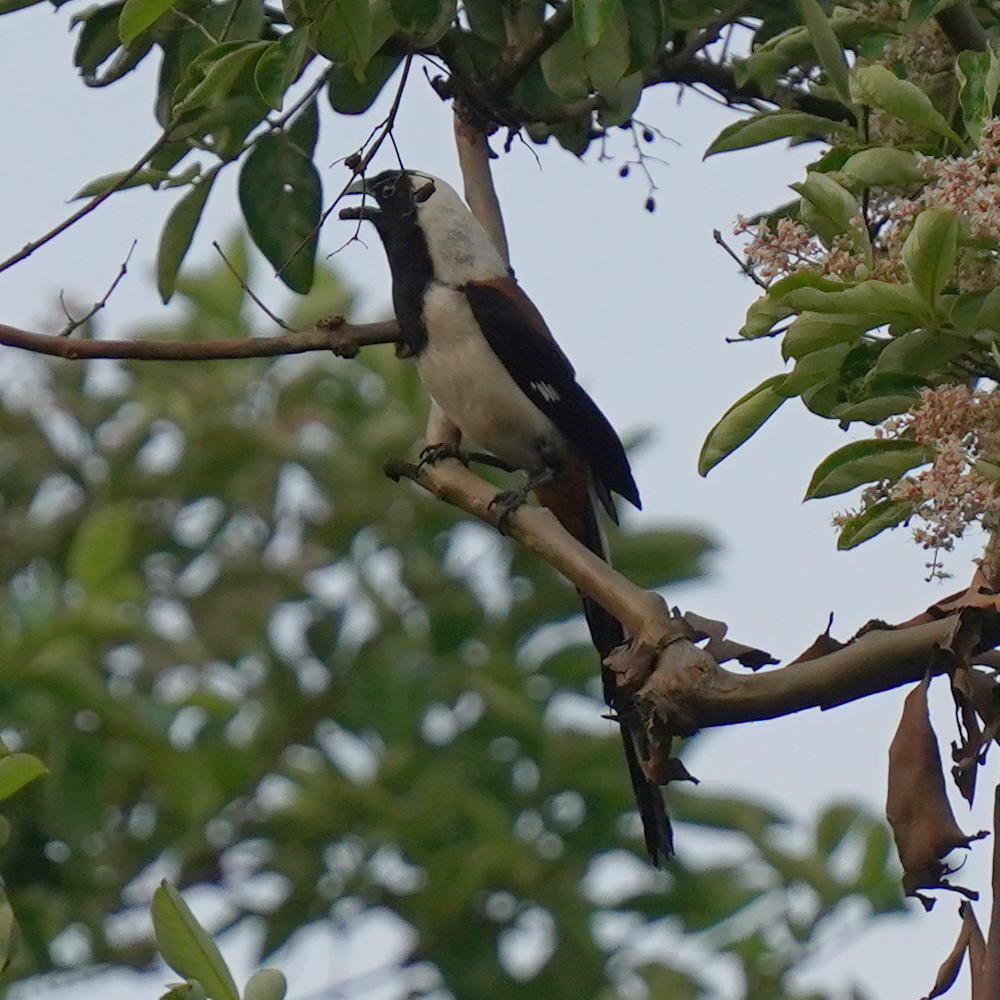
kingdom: Animalia
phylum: Chordata
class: Aves
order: Passeriformes
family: Corvidae
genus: Dendrocitta
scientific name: Dendrocitta leucogastra
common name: White-bellied treepie
